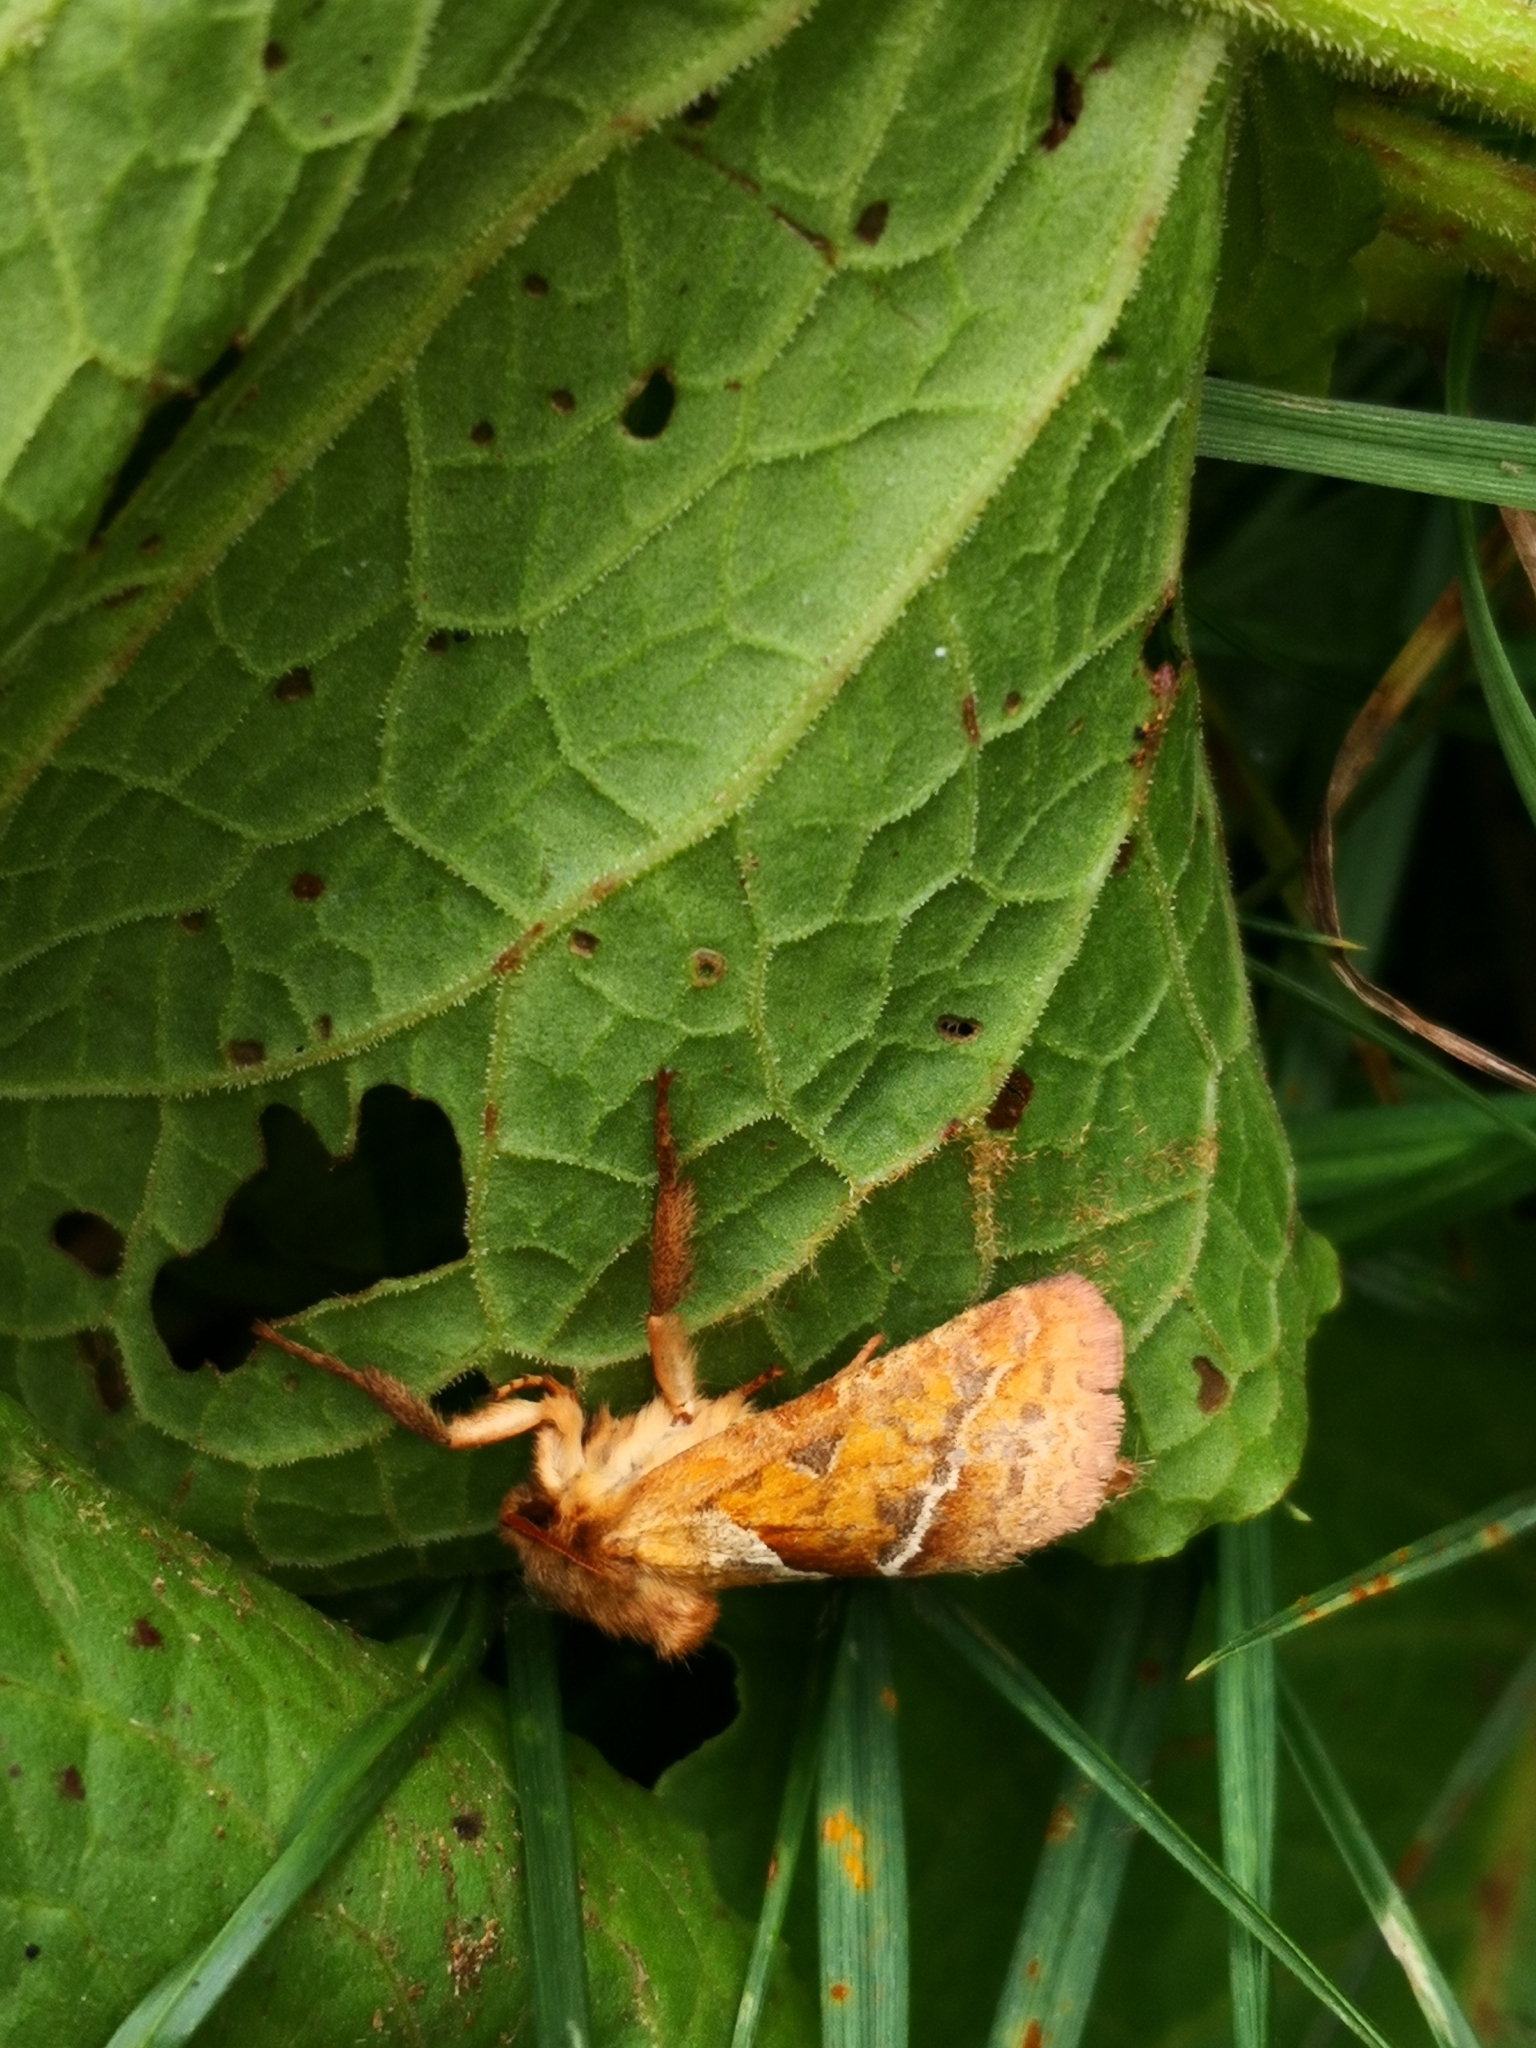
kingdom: Animalia
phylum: Arthropoda
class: Insecta
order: Lepidoptera
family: Hepialidae
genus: Triodia
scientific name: Triodia sylvina
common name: Orange swift
